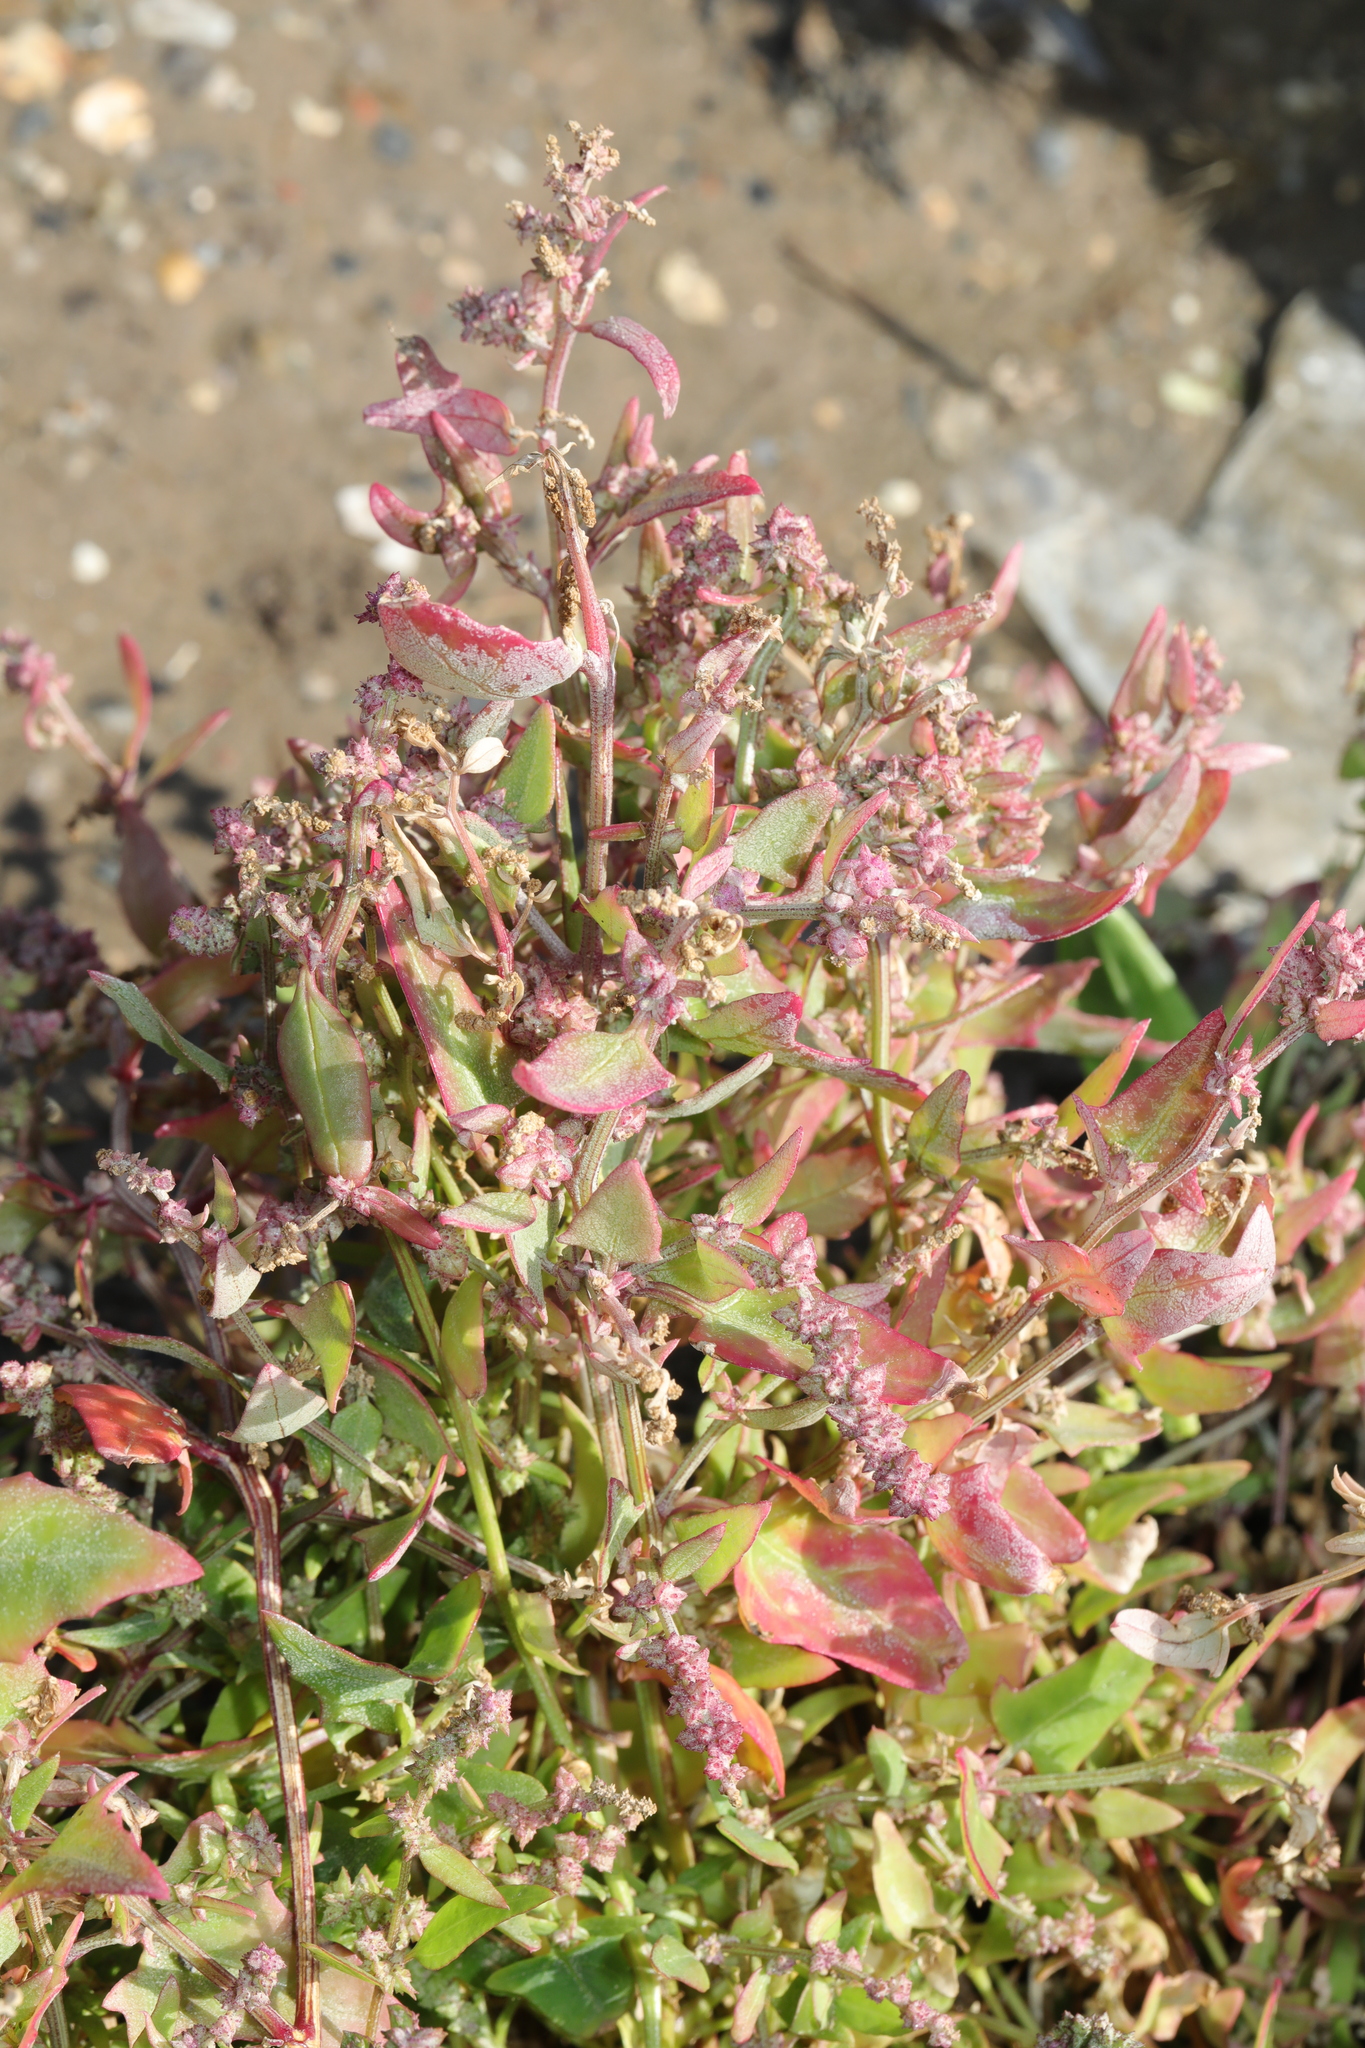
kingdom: Plantae
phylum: Tracheophyta
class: Magnoliopsida
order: Caryophyllales
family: Amaranthaceae
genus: Atriplex
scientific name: Atriplex prostrata
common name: Spear-leaved orache
